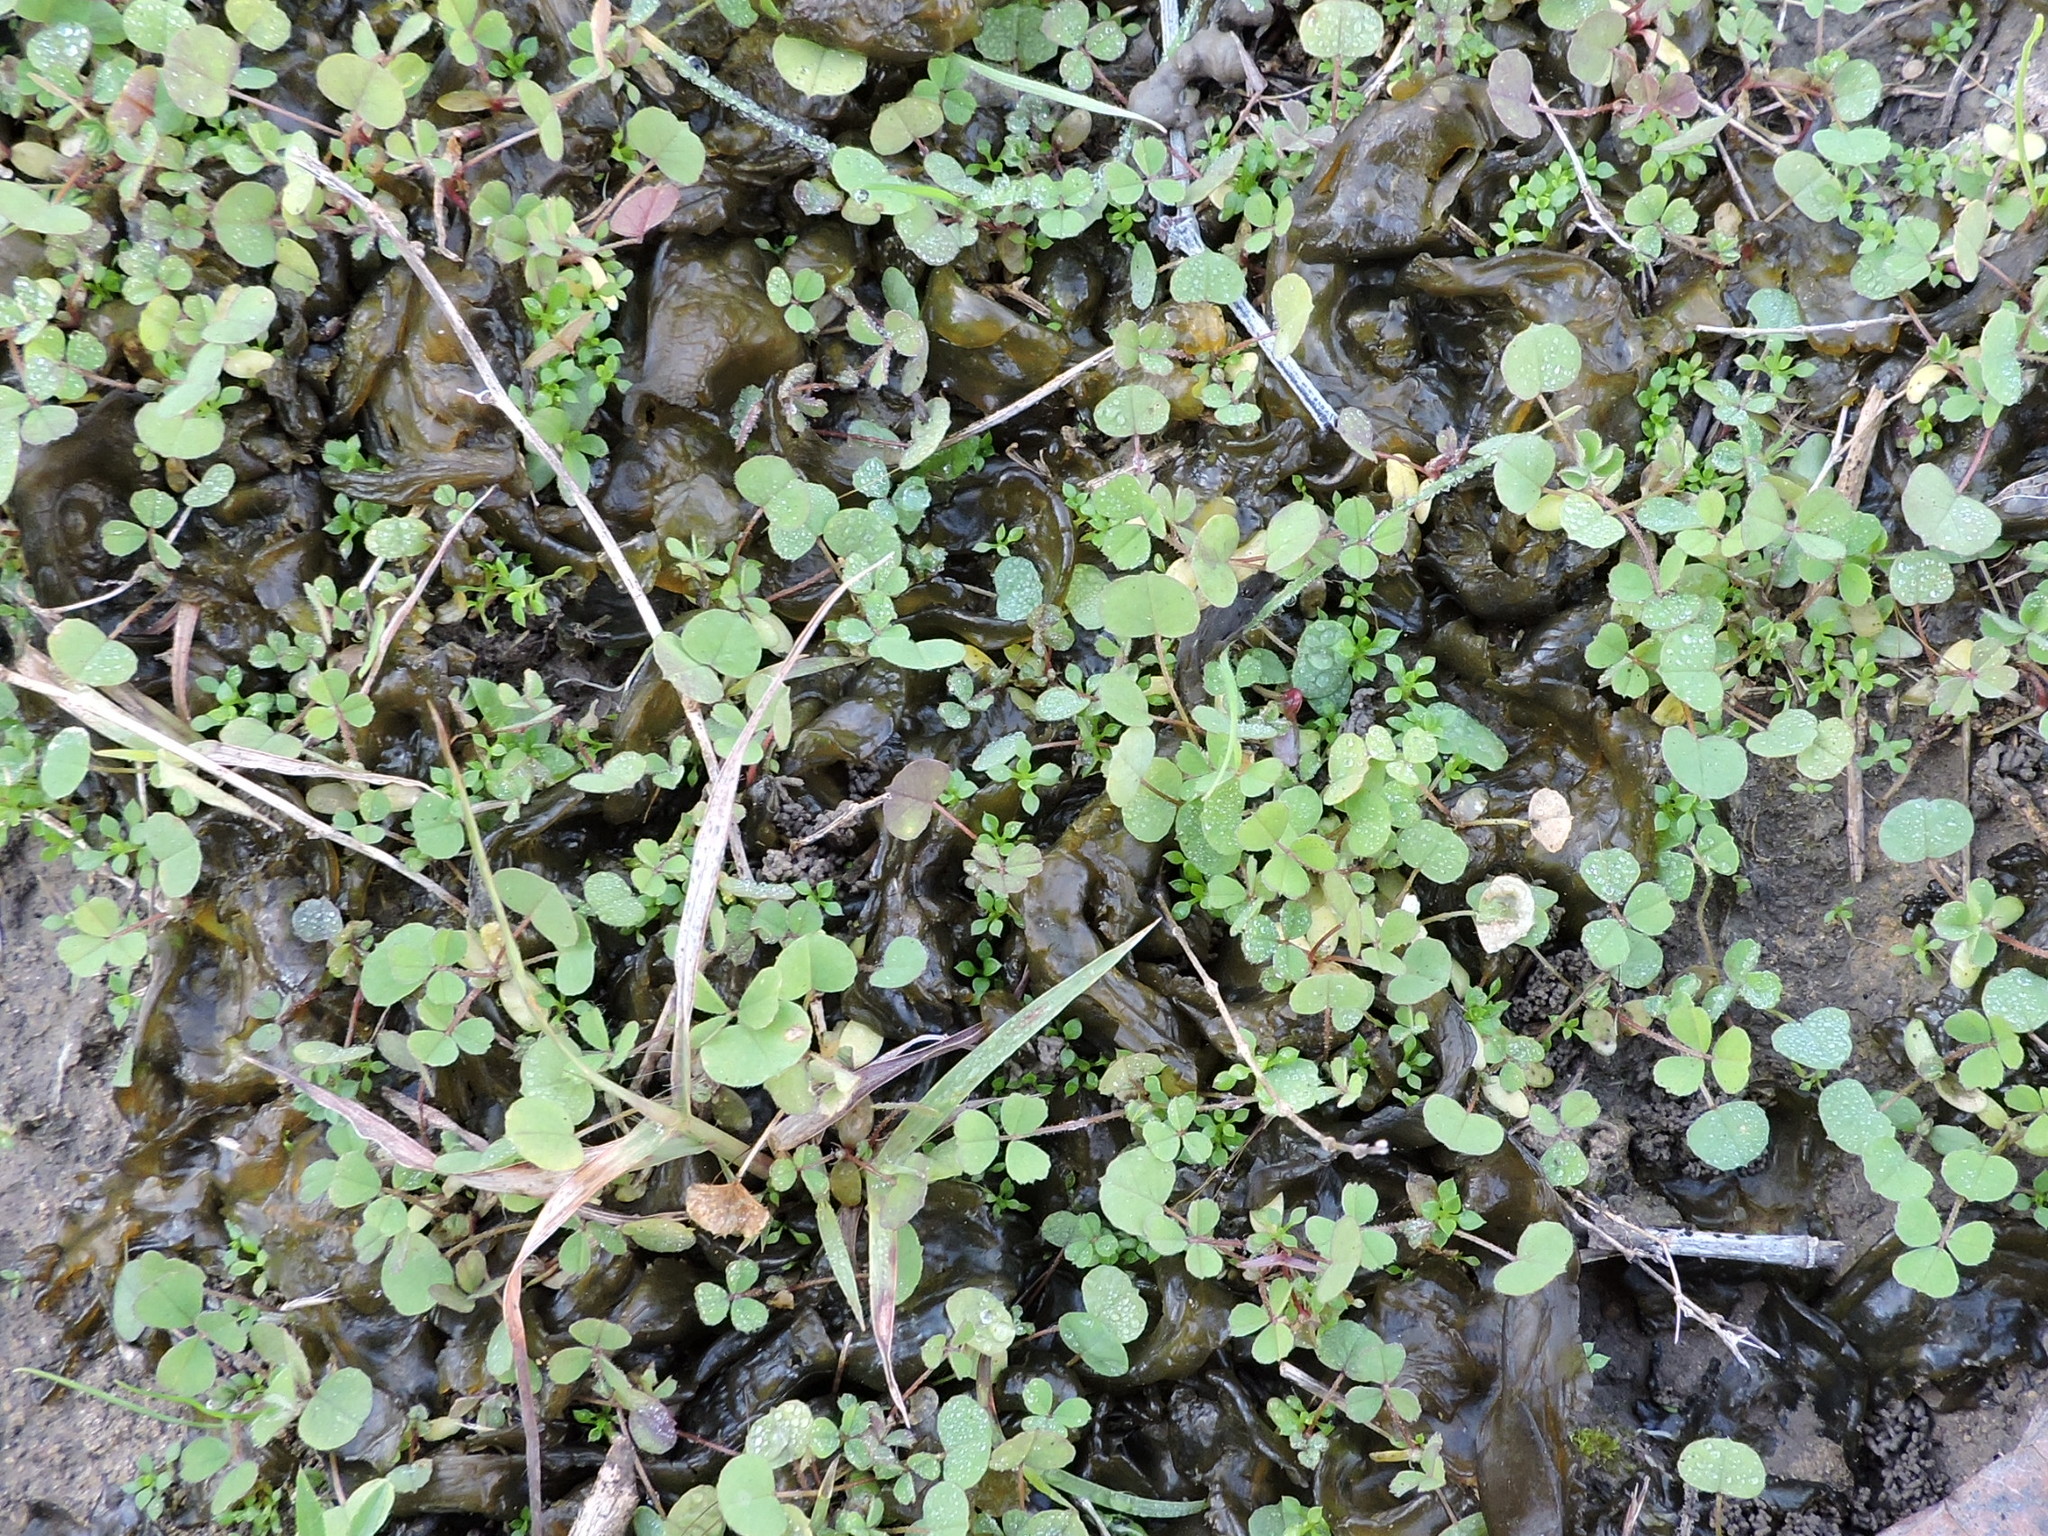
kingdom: Bacteria
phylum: Cyanobacteria
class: Cyanobacteriia
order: Cyanobacteriales
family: Nostocaceae
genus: Nostoc
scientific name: Nostoc commune
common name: Star jelly
